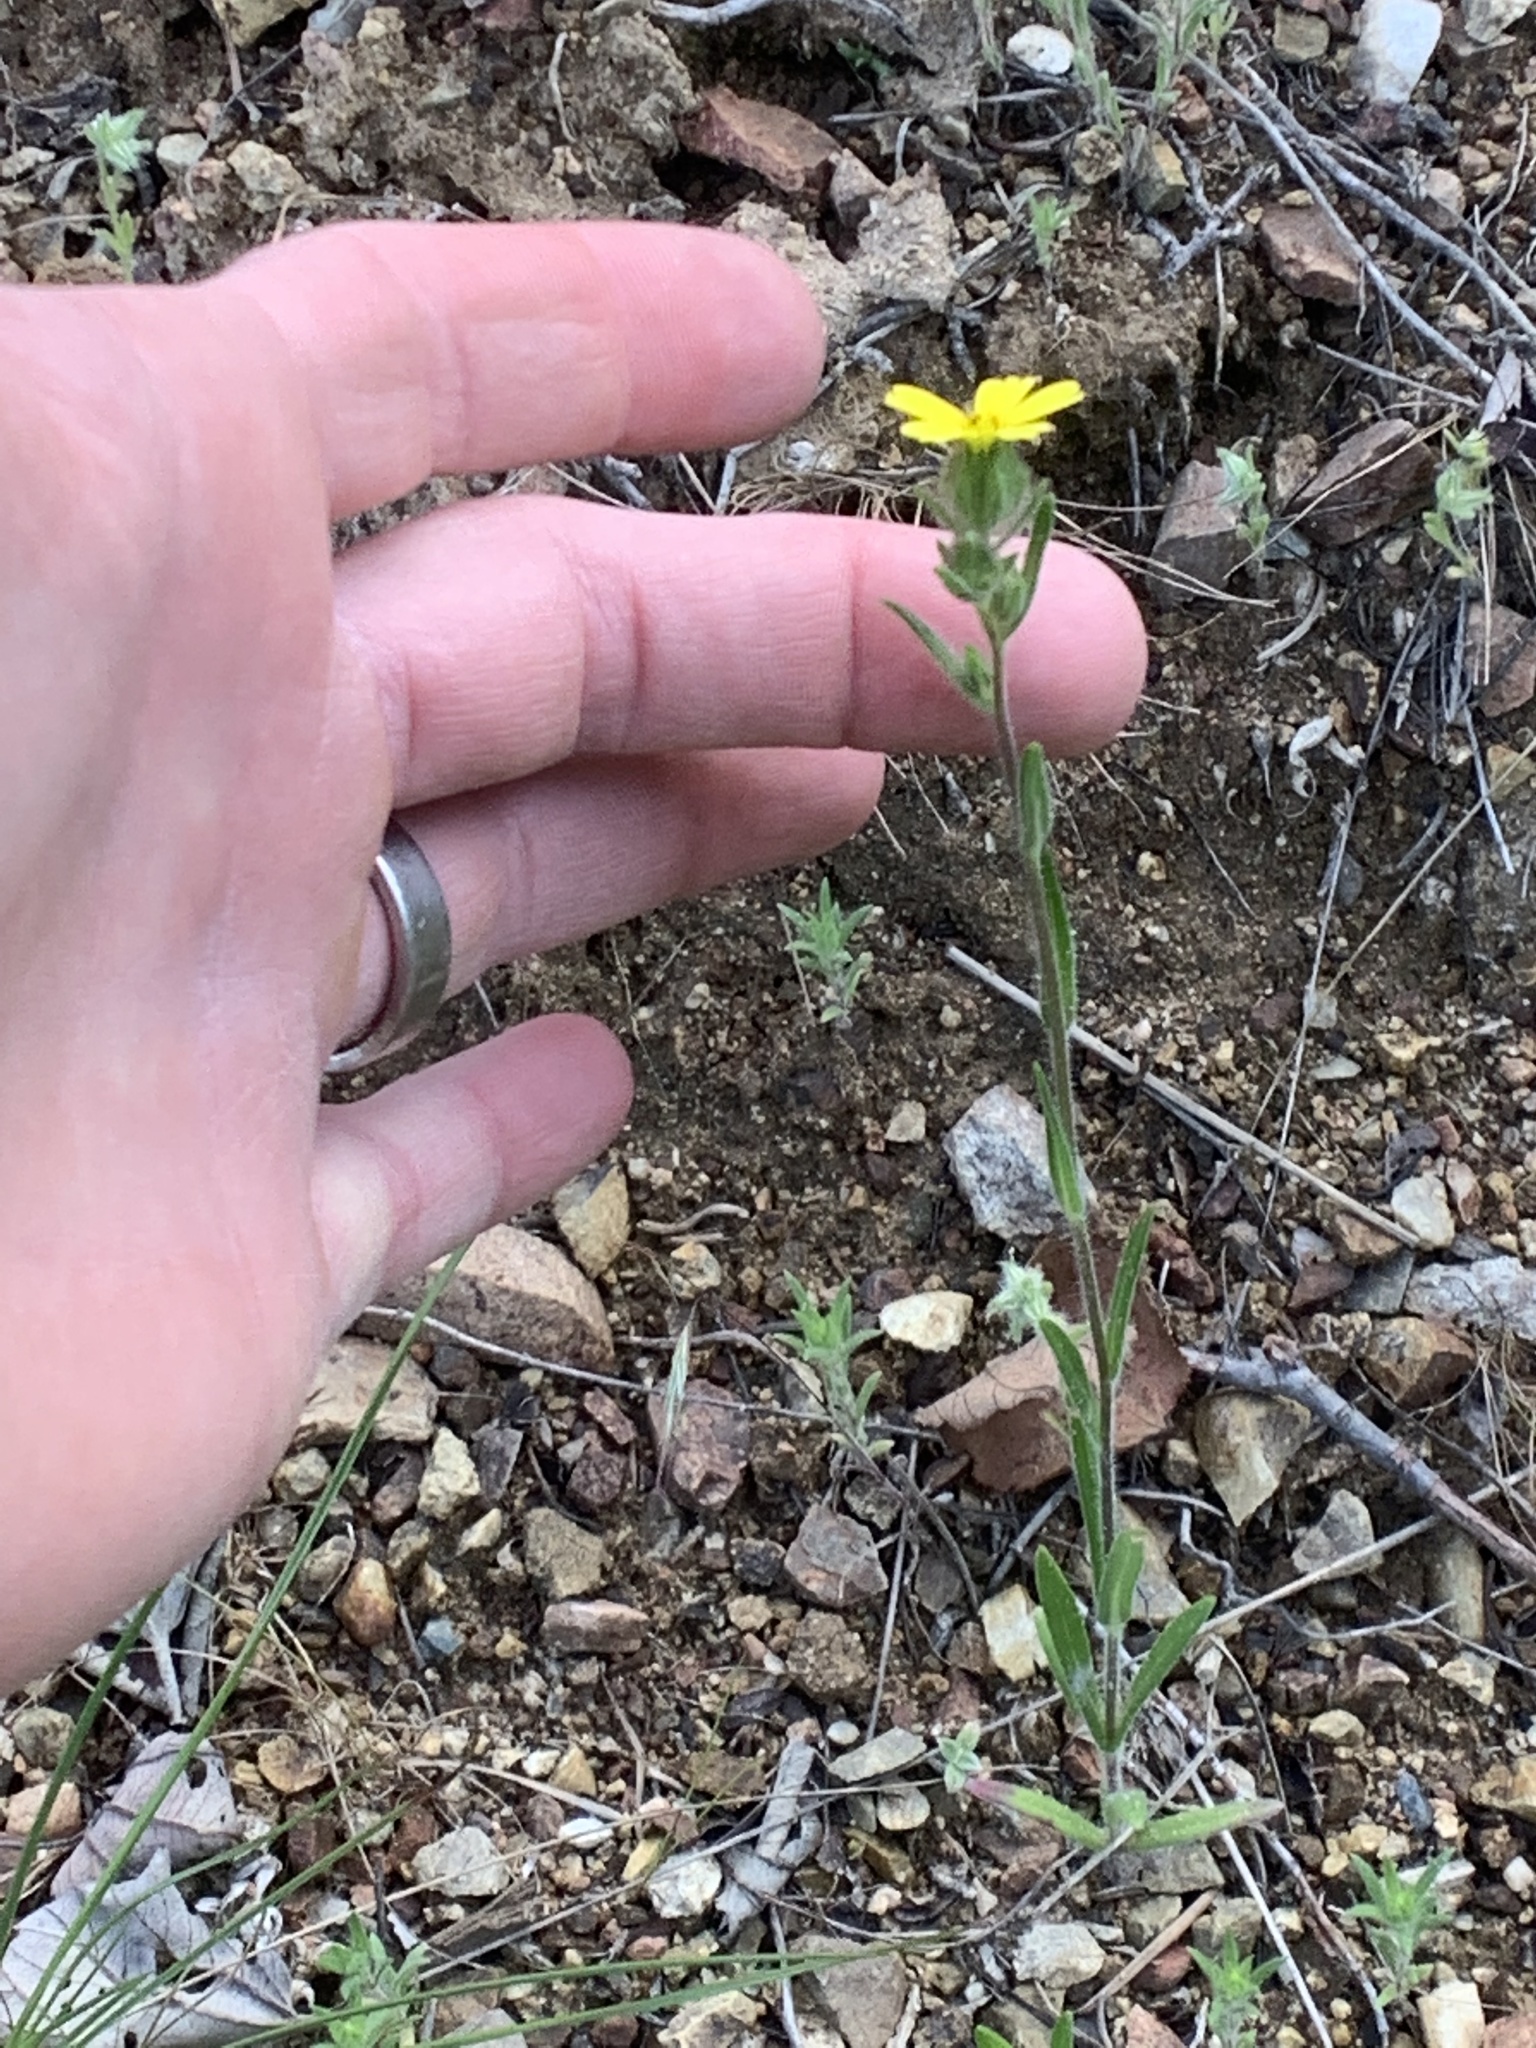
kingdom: Plantae
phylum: Tracheophyta
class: Magnoliopsida
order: Asterales
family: Asteraceae
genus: Madia
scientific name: Madia gracilis
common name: Grassy tarweed
